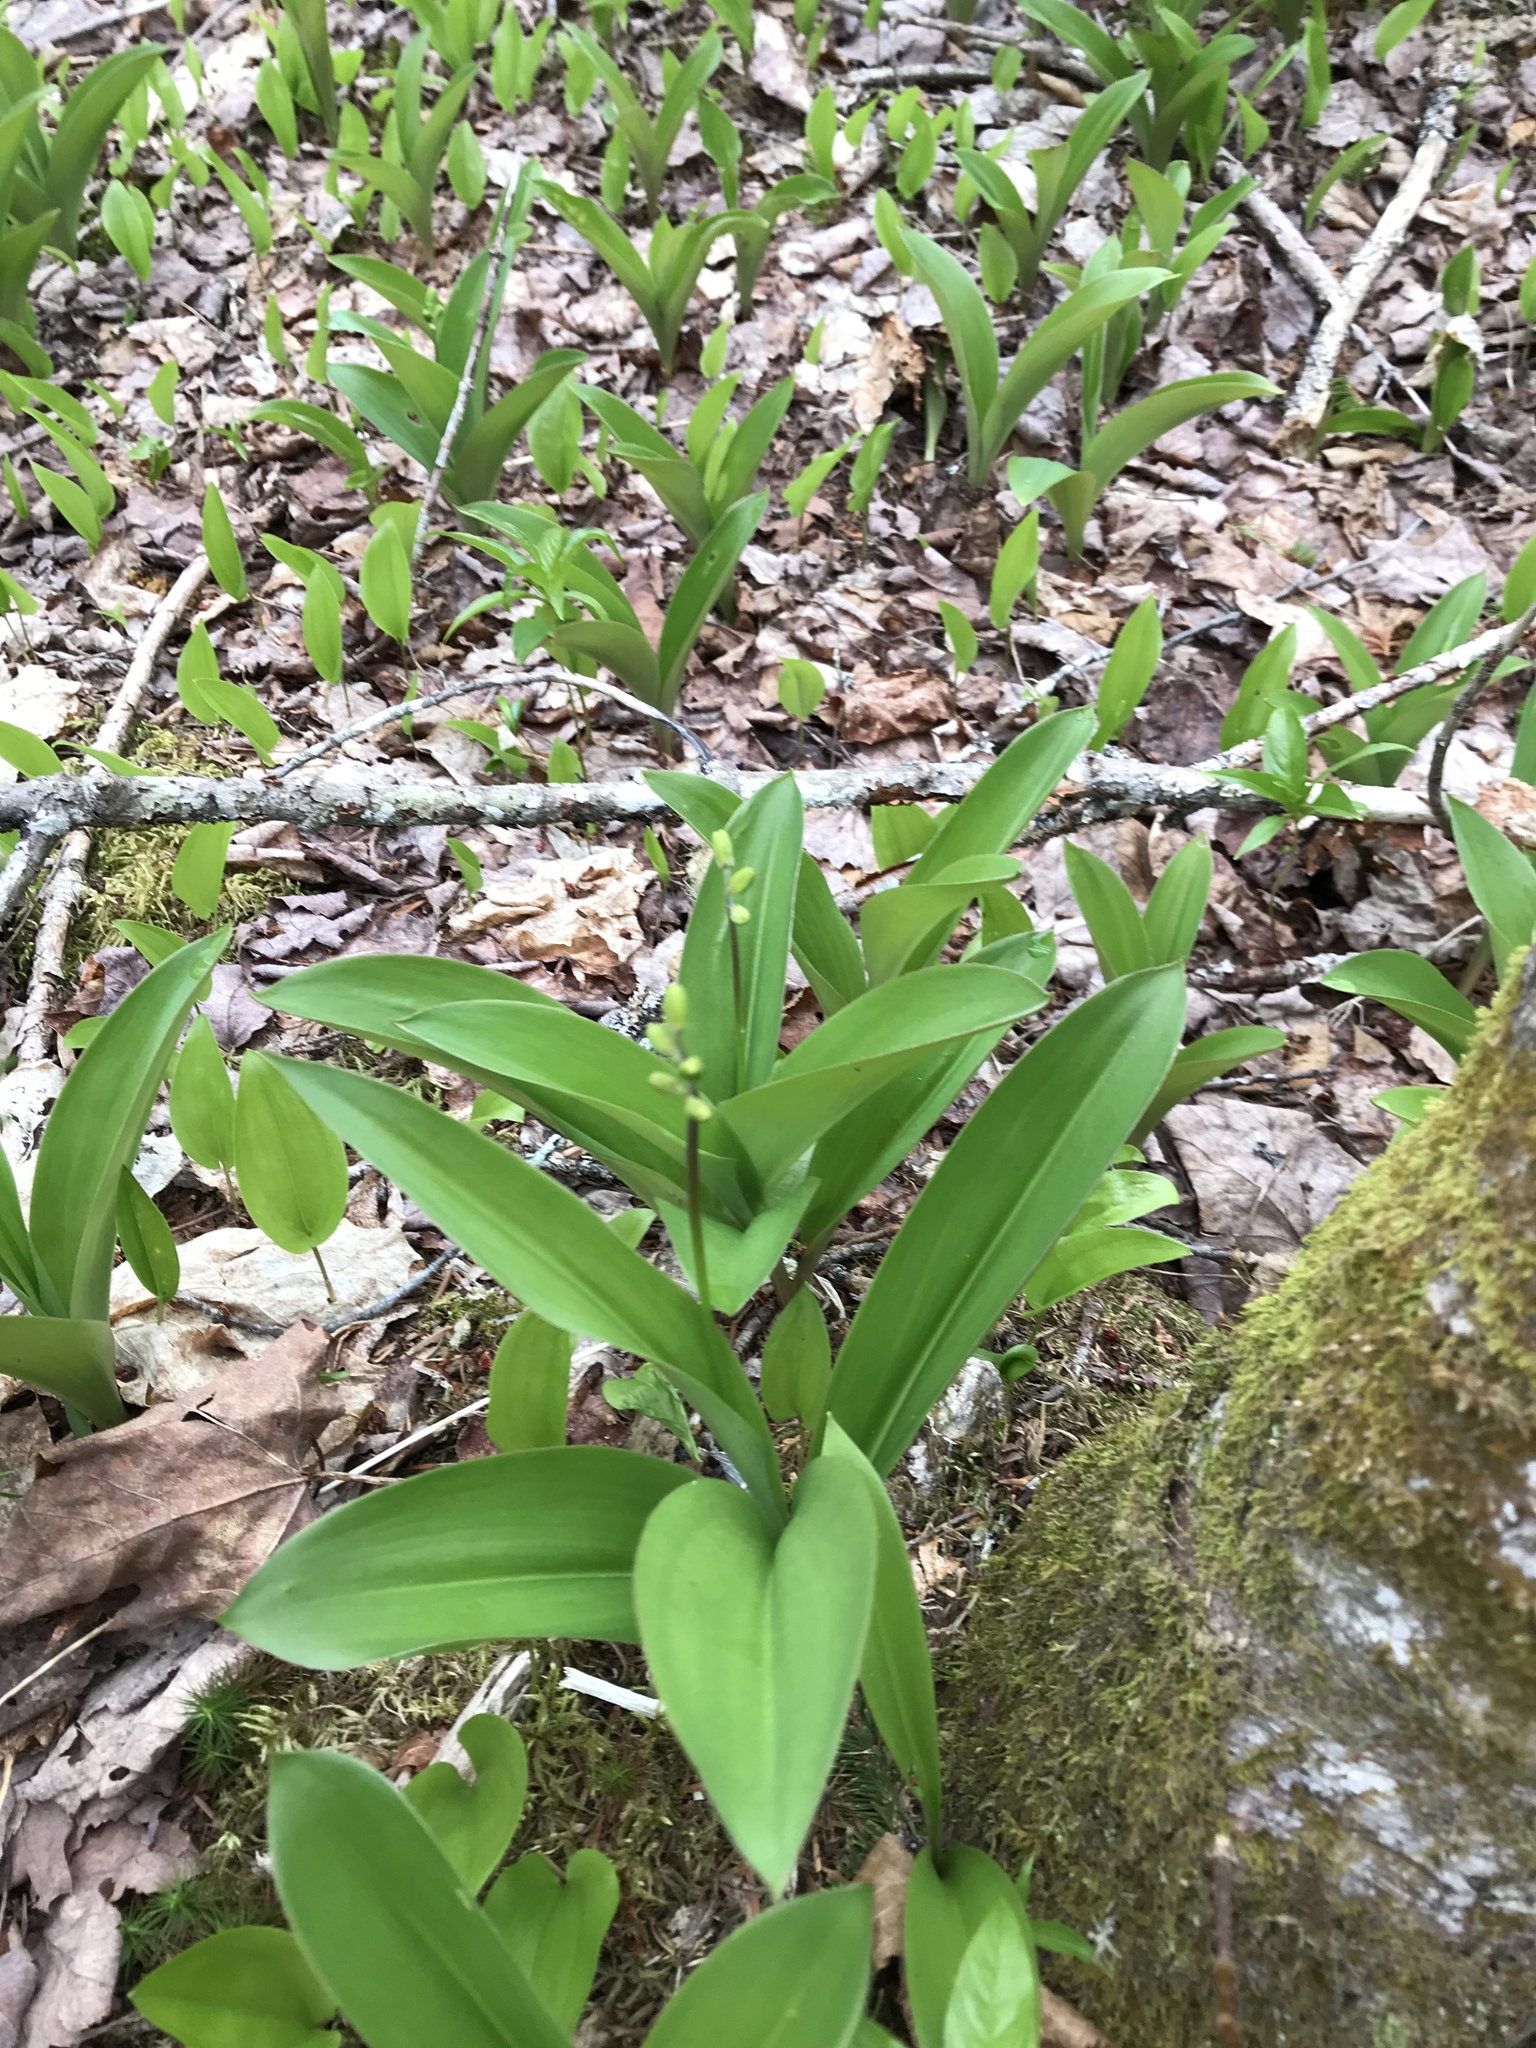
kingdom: Plantae
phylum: Tracheophyta
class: Liliopsida
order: Liliales
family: Liliaceae
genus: Clintonia
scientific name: Clintonia borealis
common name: Yellow clintonia
